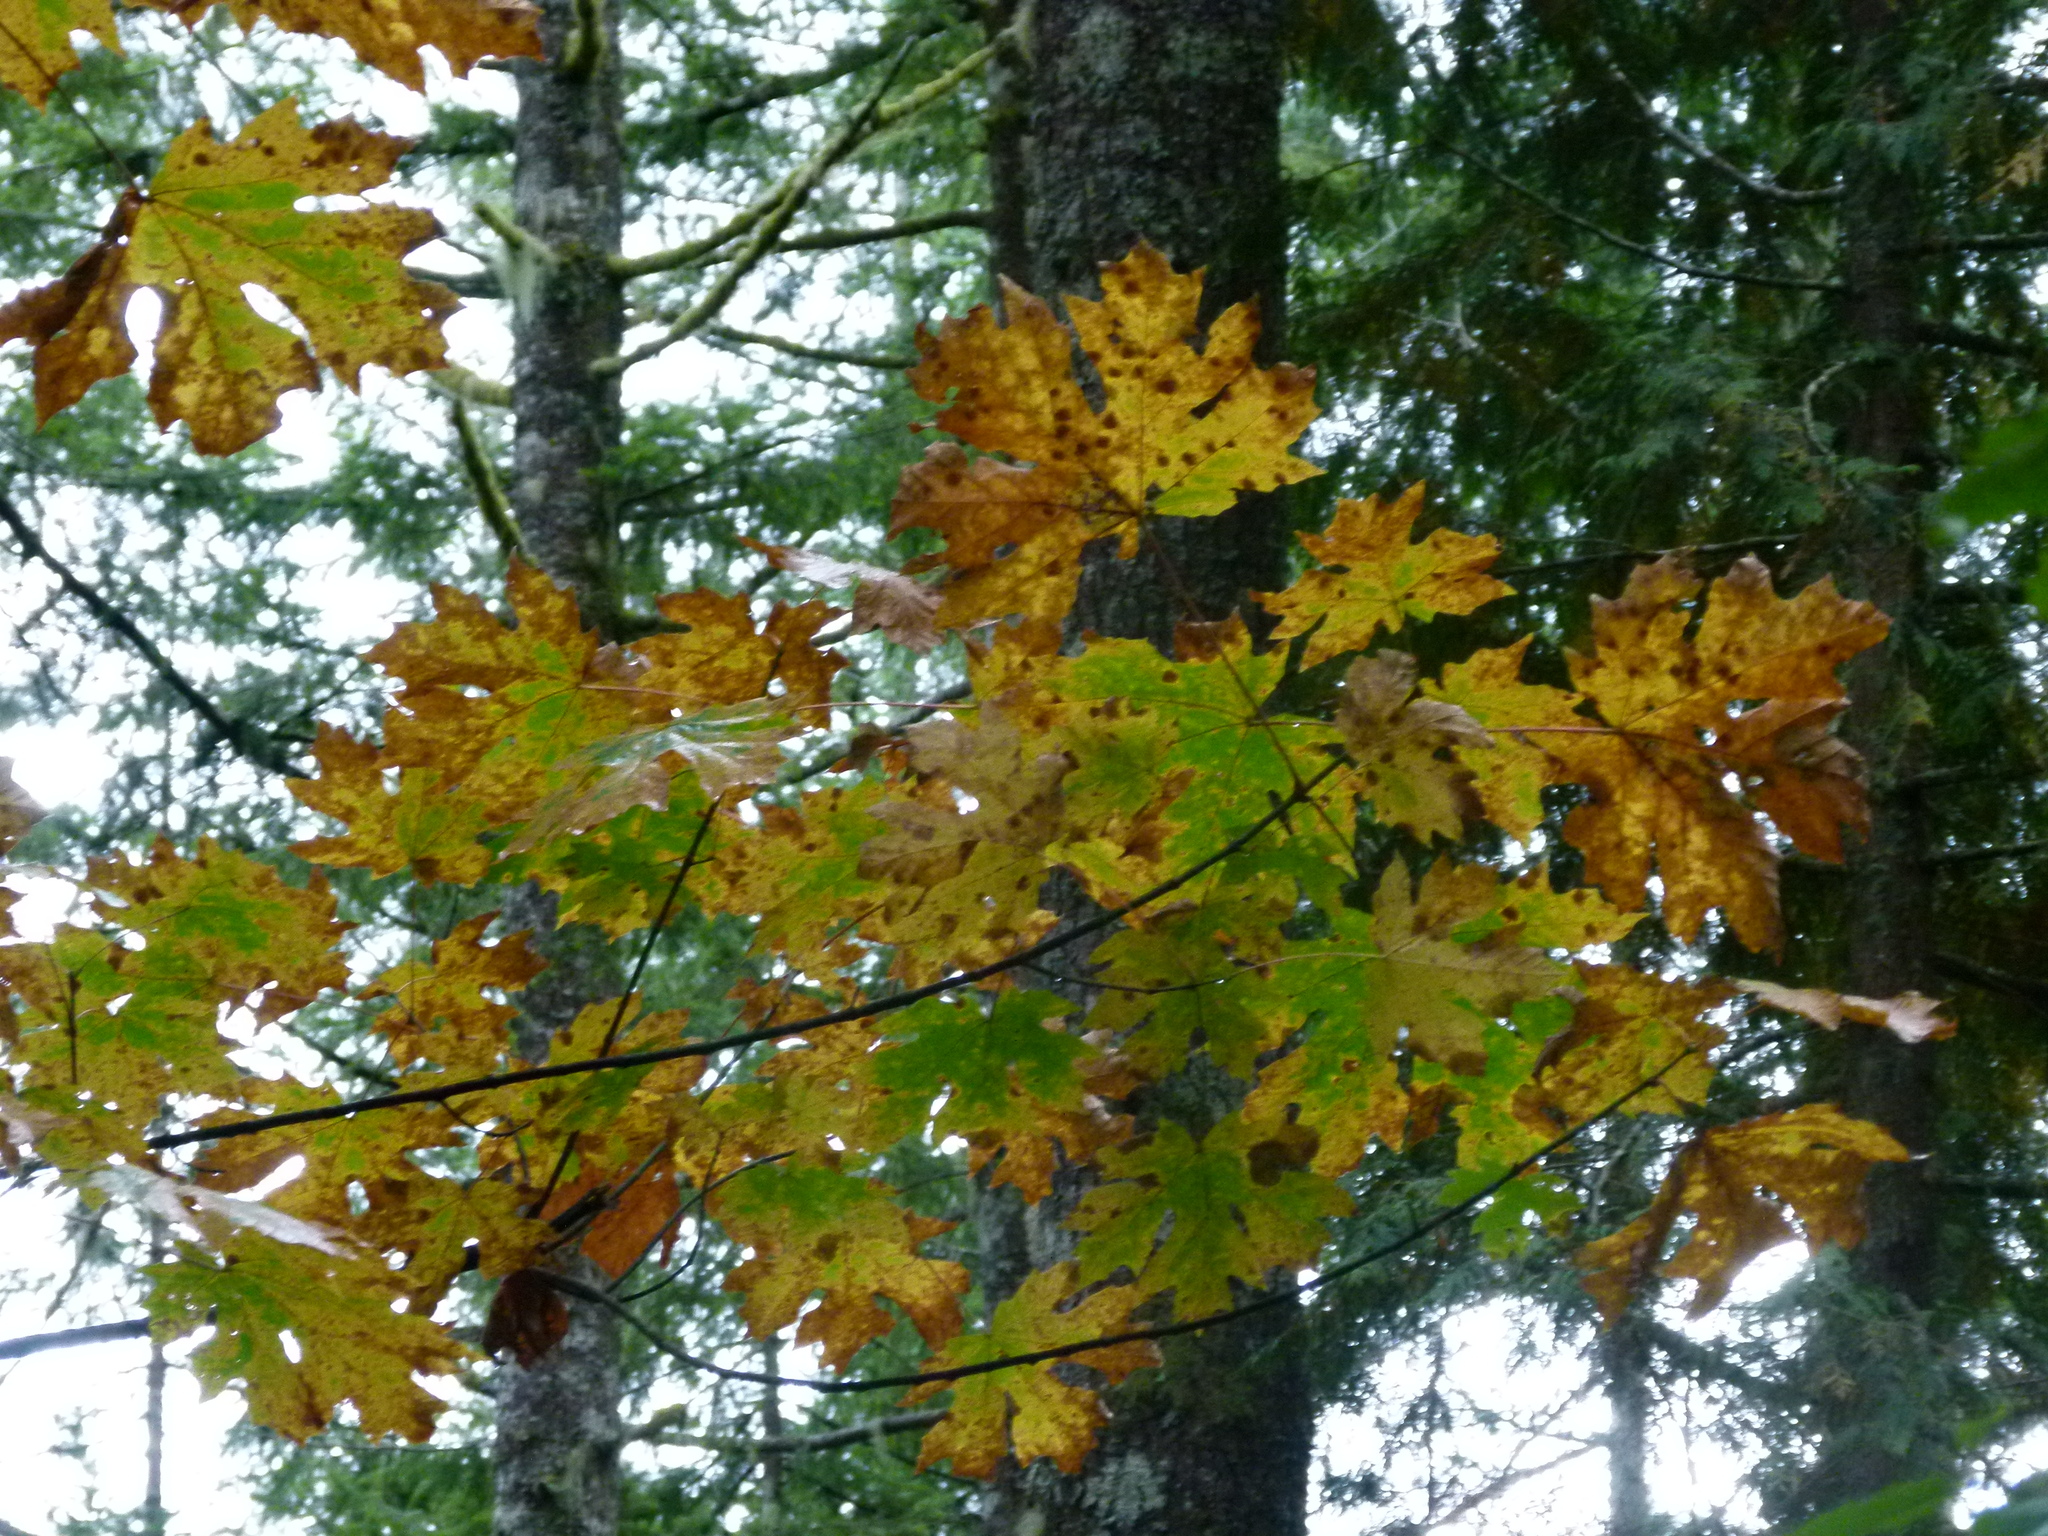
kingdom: Plantae
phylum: Tracheophyta
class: Magnoliopsida
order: Sapindales
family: Sapindaceae
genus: Acer
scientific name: Acer macrophyllum
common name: Oregon maple
